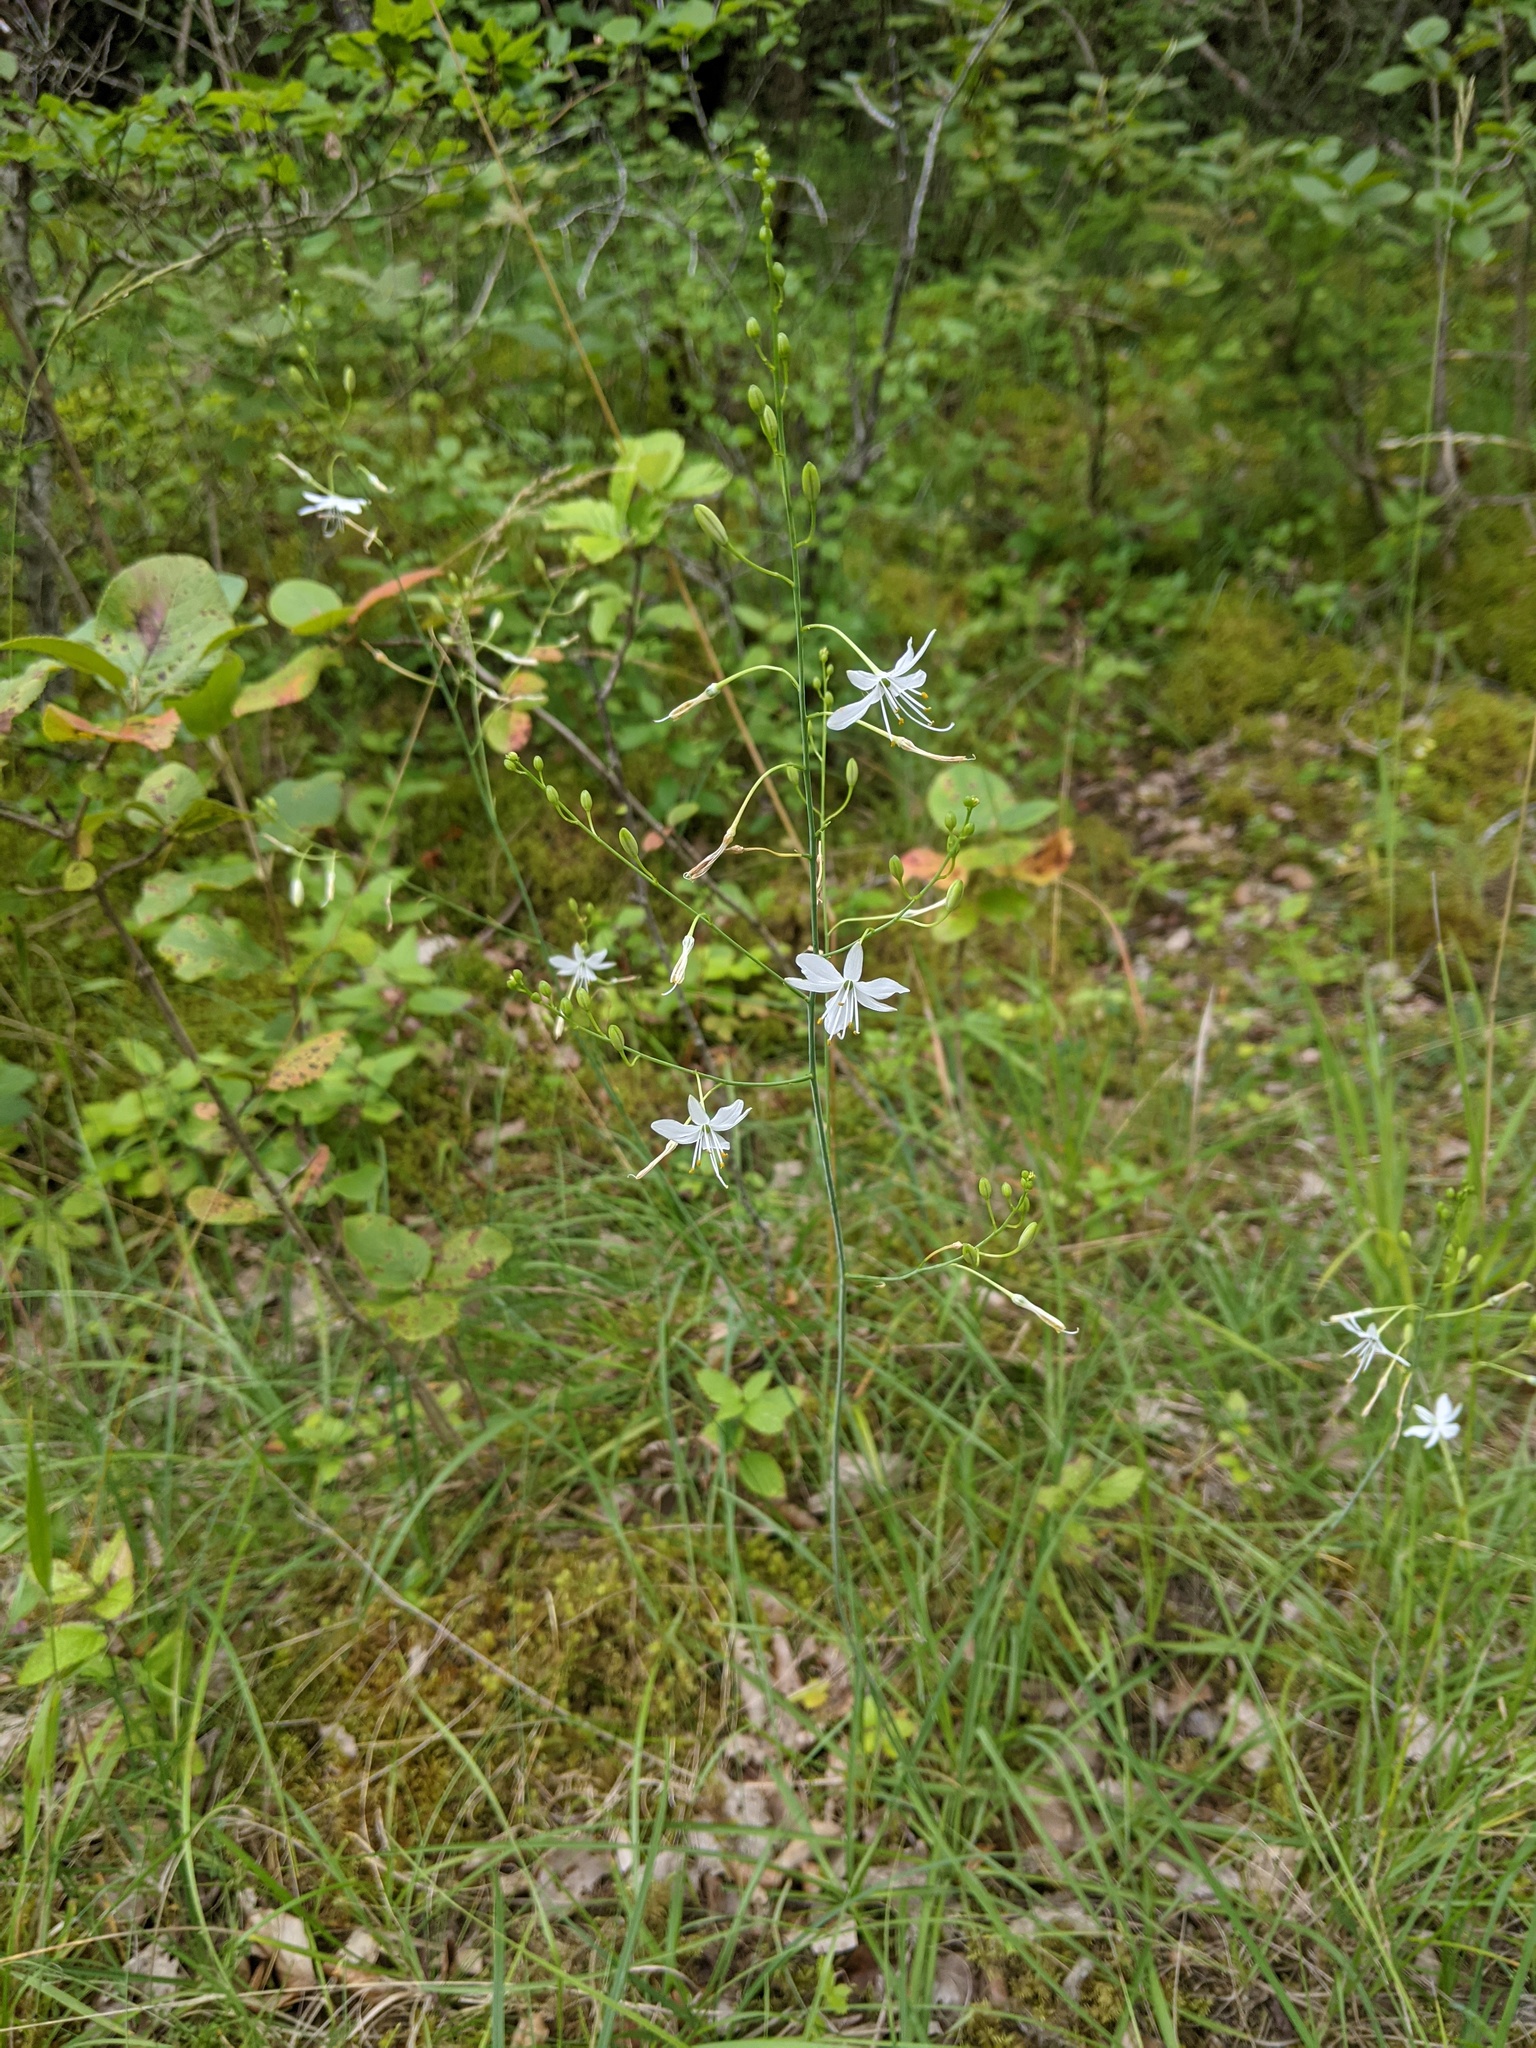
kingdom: Plantae
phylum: Tracheophyta
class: Liliopsida
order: Asparagales
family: Asparagaceae
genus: Anthericum
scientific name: Anthericum ramosum
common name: Branched st. bernard's-lily
